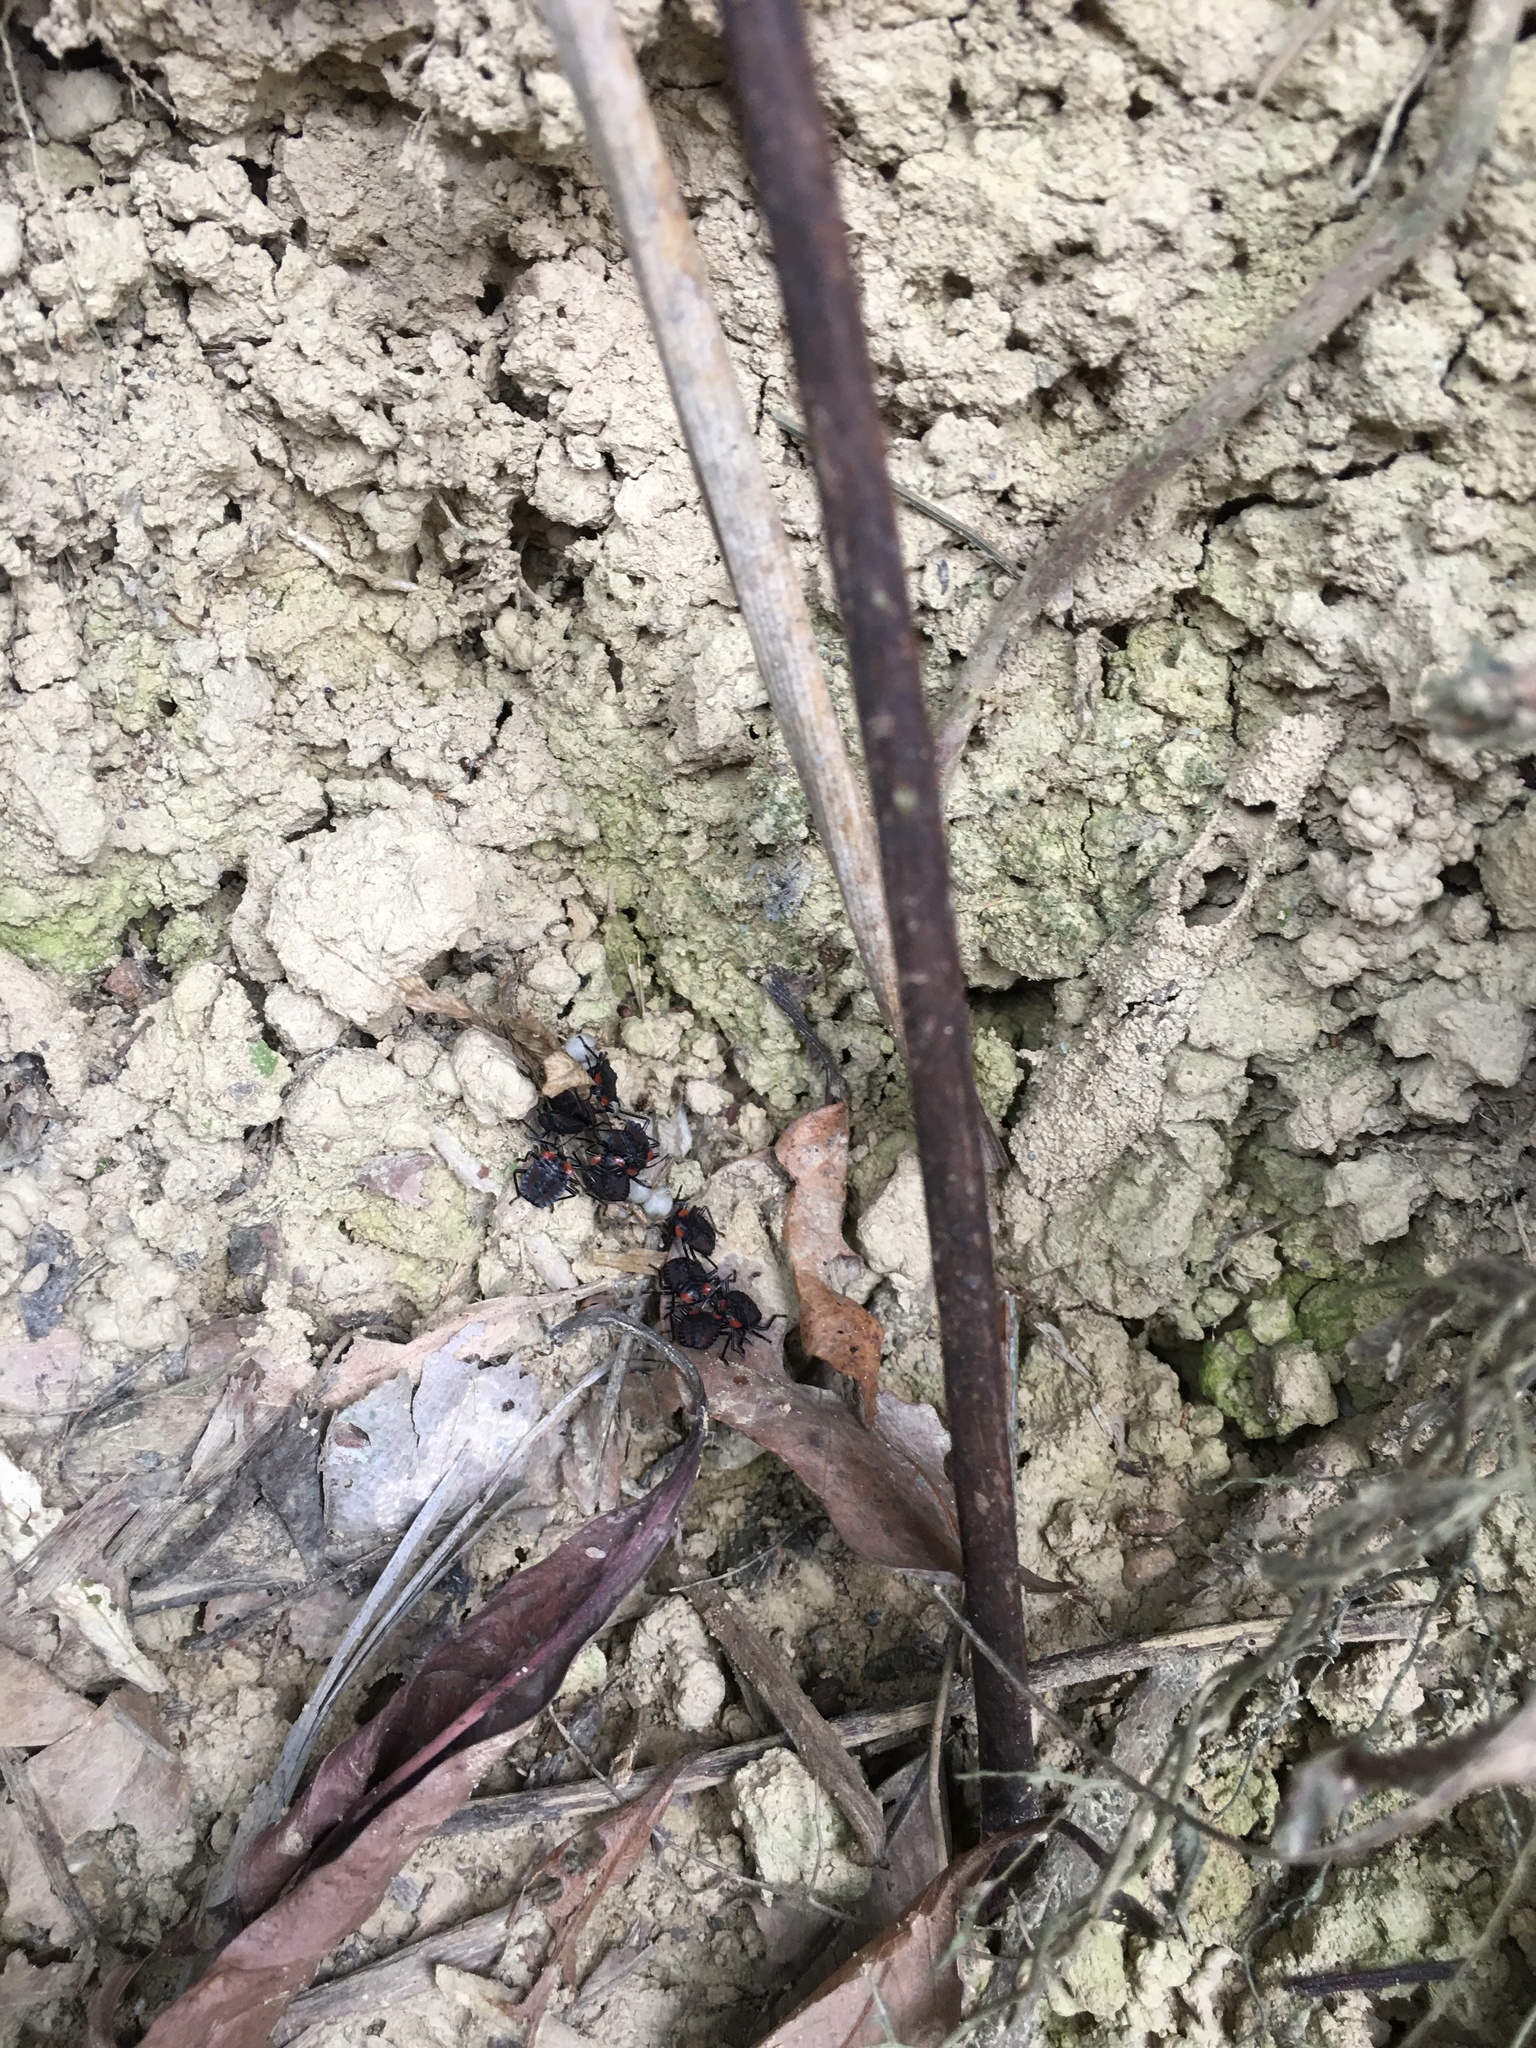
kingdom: Animalia
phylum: Arthropoda
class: Insecta
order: Hemiptera
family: Tessaratomidae
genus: Tessaratoma
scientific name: Tessaratoma papillosa
